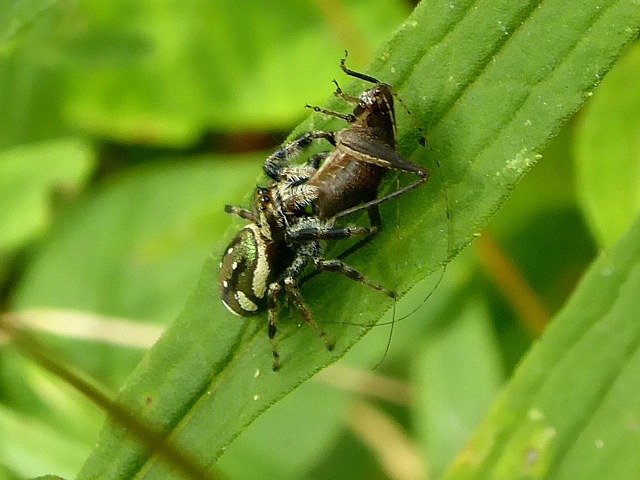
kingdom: Animalia
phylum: Arthropoda
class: Arachnida
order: Araneae
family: Salticidae
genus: Paraphidippus
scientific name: Paraphidippus aurantius
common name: Jumping spiders
